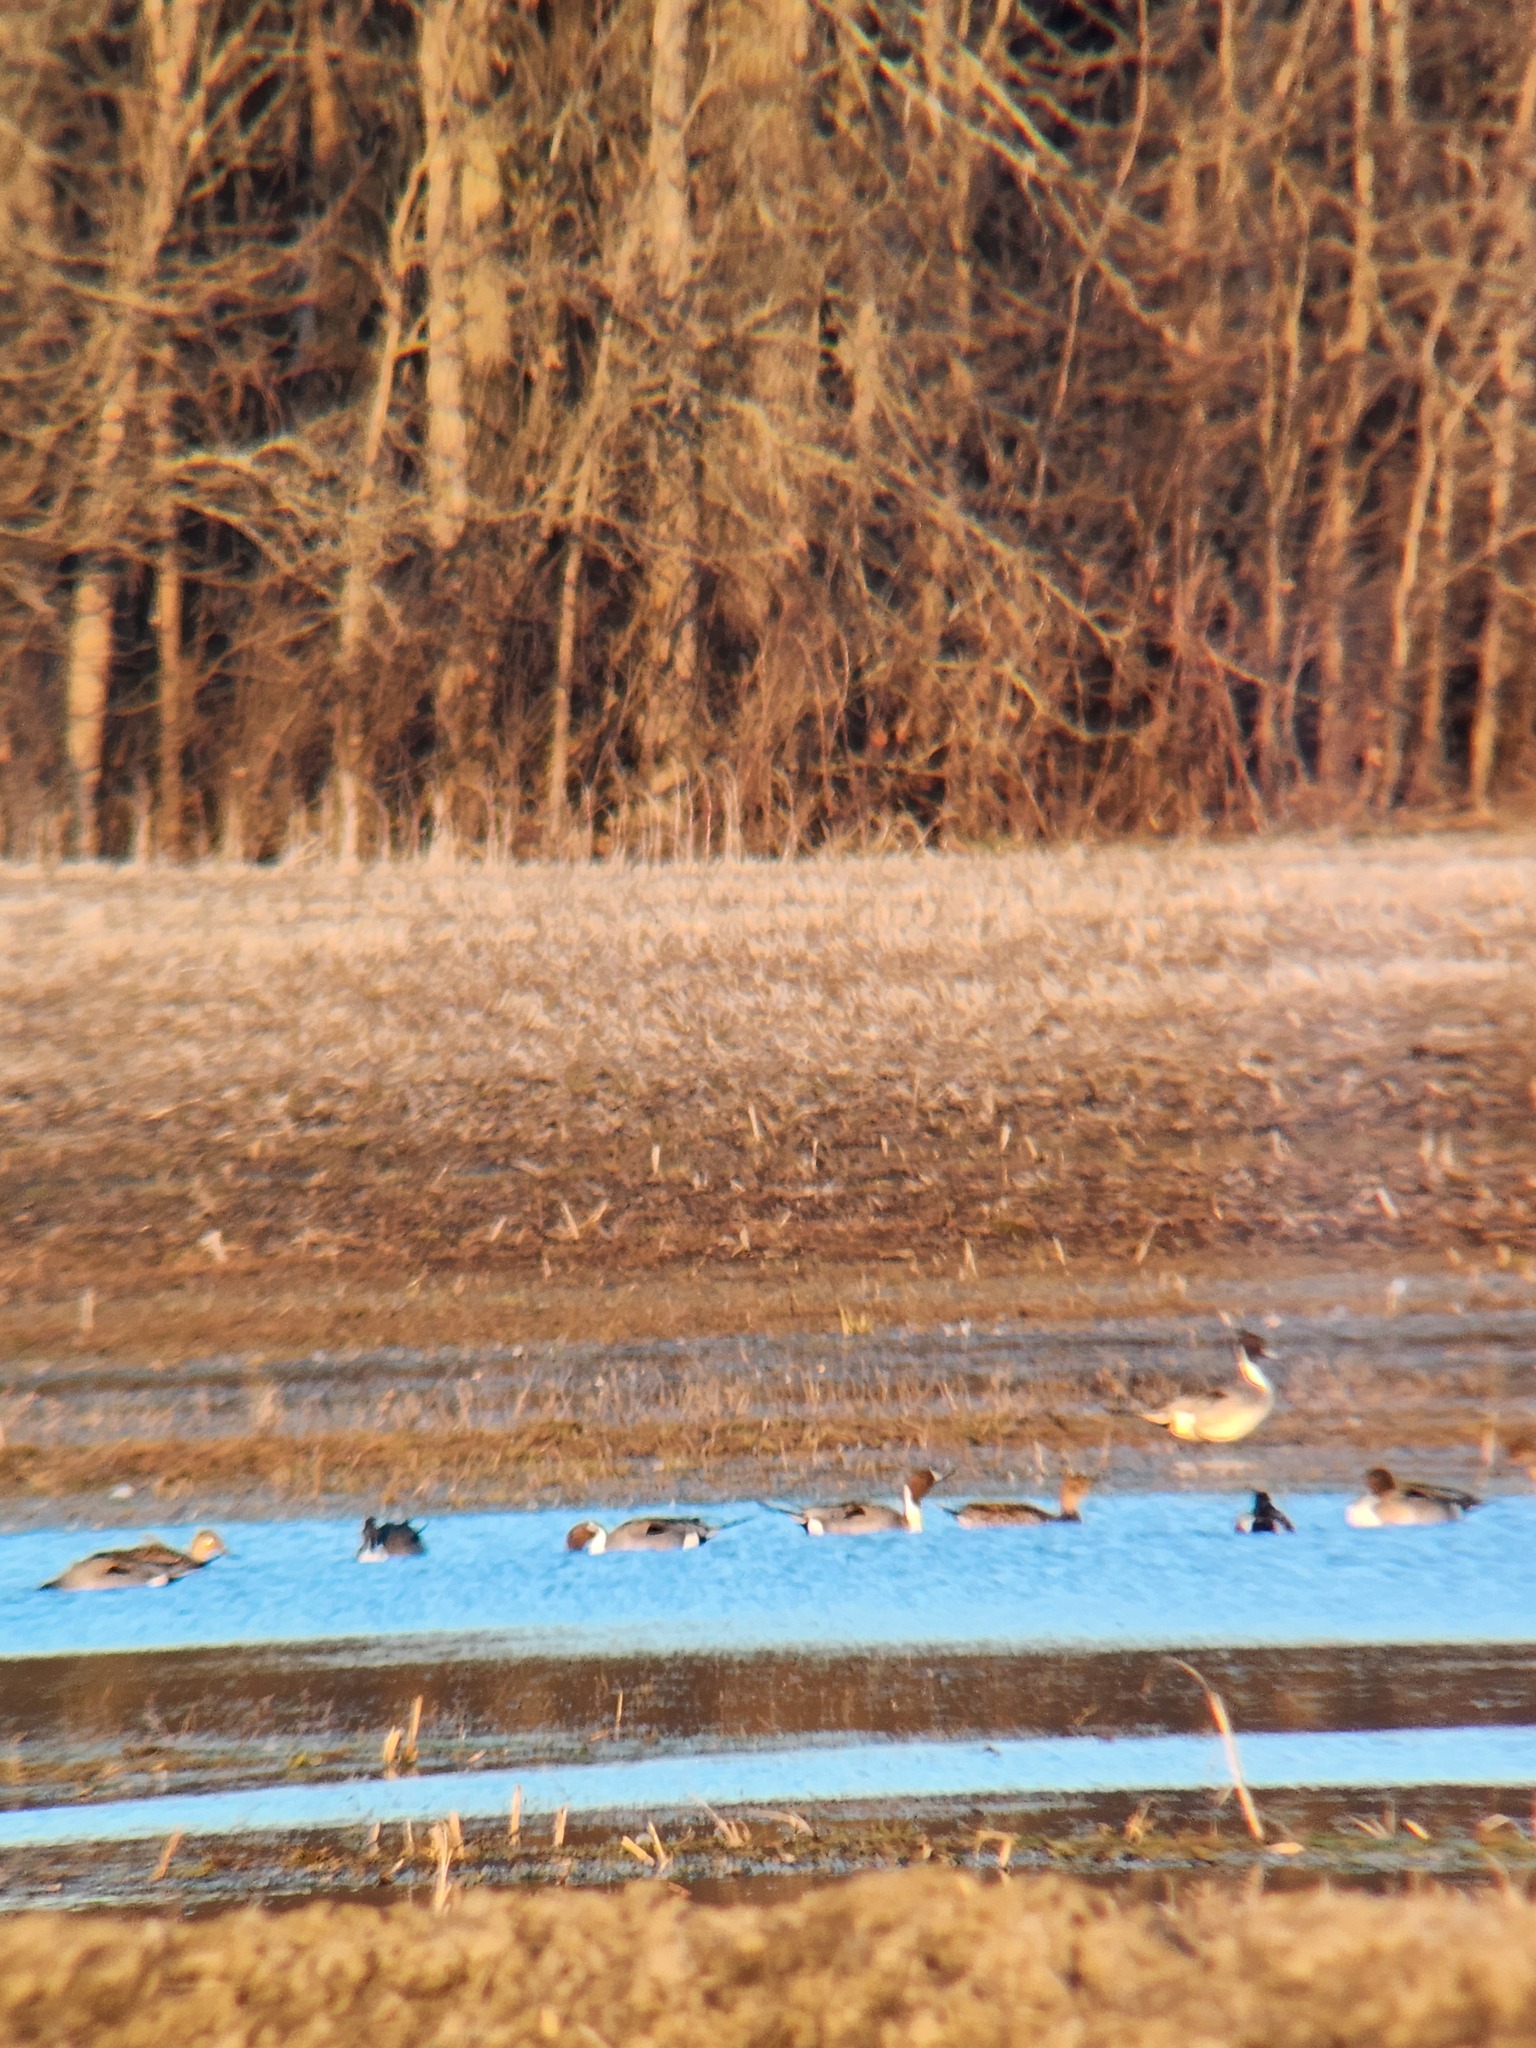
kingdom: Animalia
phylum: Chordata
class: Aves
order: Anseriformes
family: Anatidae
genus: Anas
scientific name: Anas acuta
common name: Northern pintail
